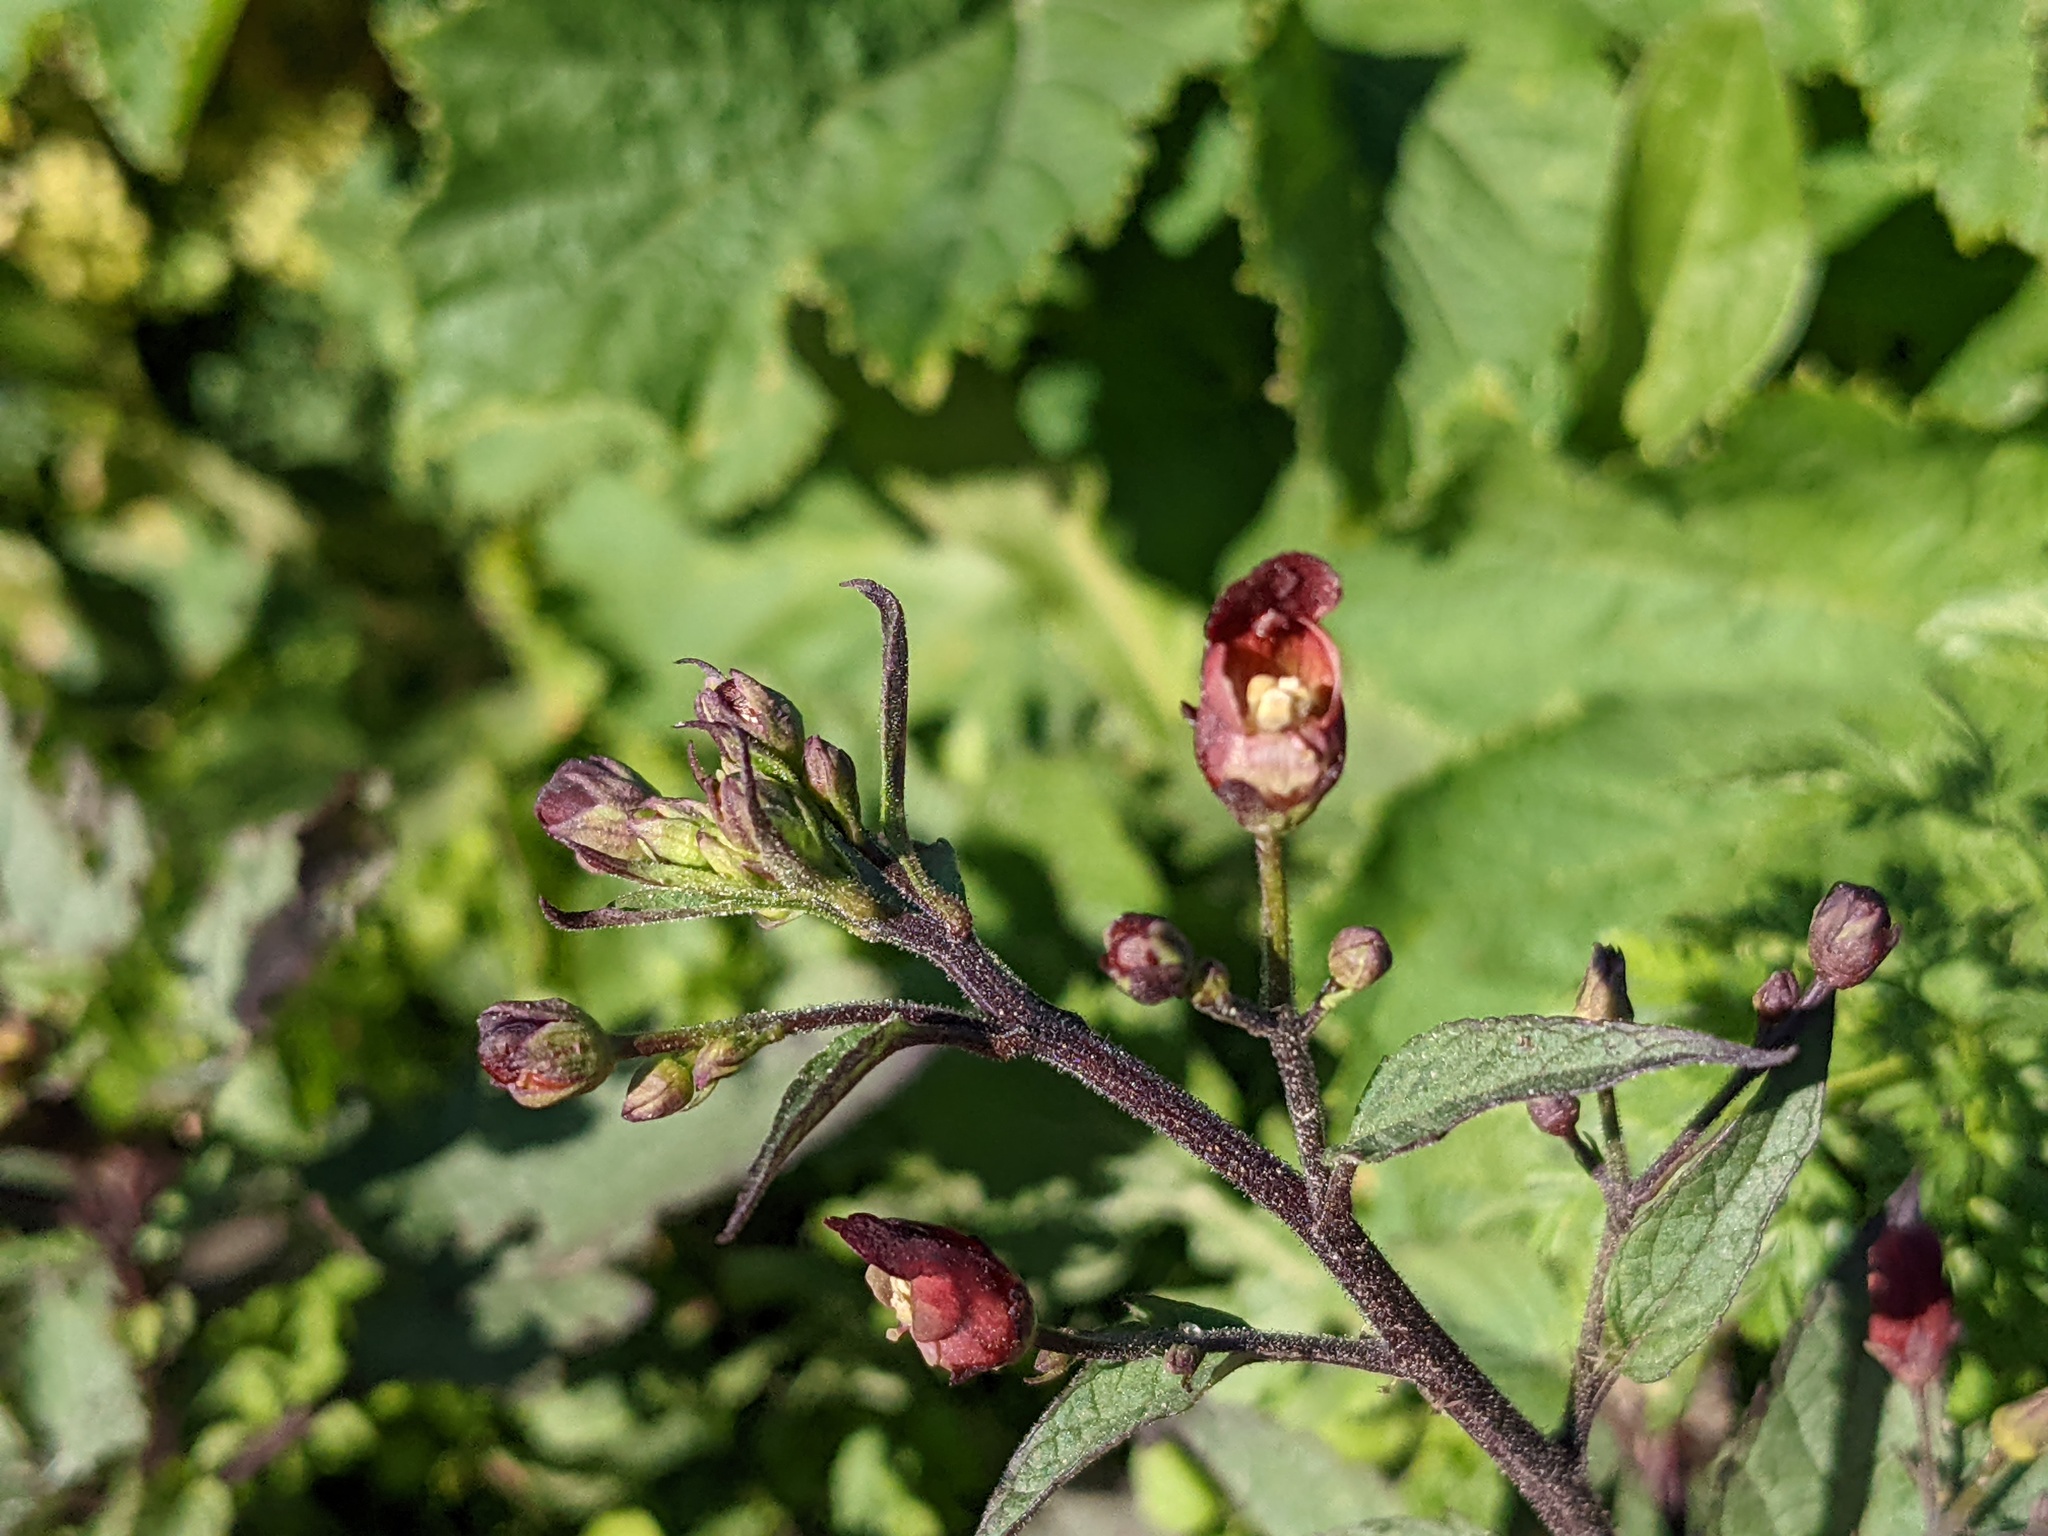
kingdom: Plantae
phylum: Tracheophyta
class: Magnoliopsida
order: Lamiales
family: Scrophulariaceae
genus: Scrophularia
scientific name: Scrophularia californica
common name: California figwort
